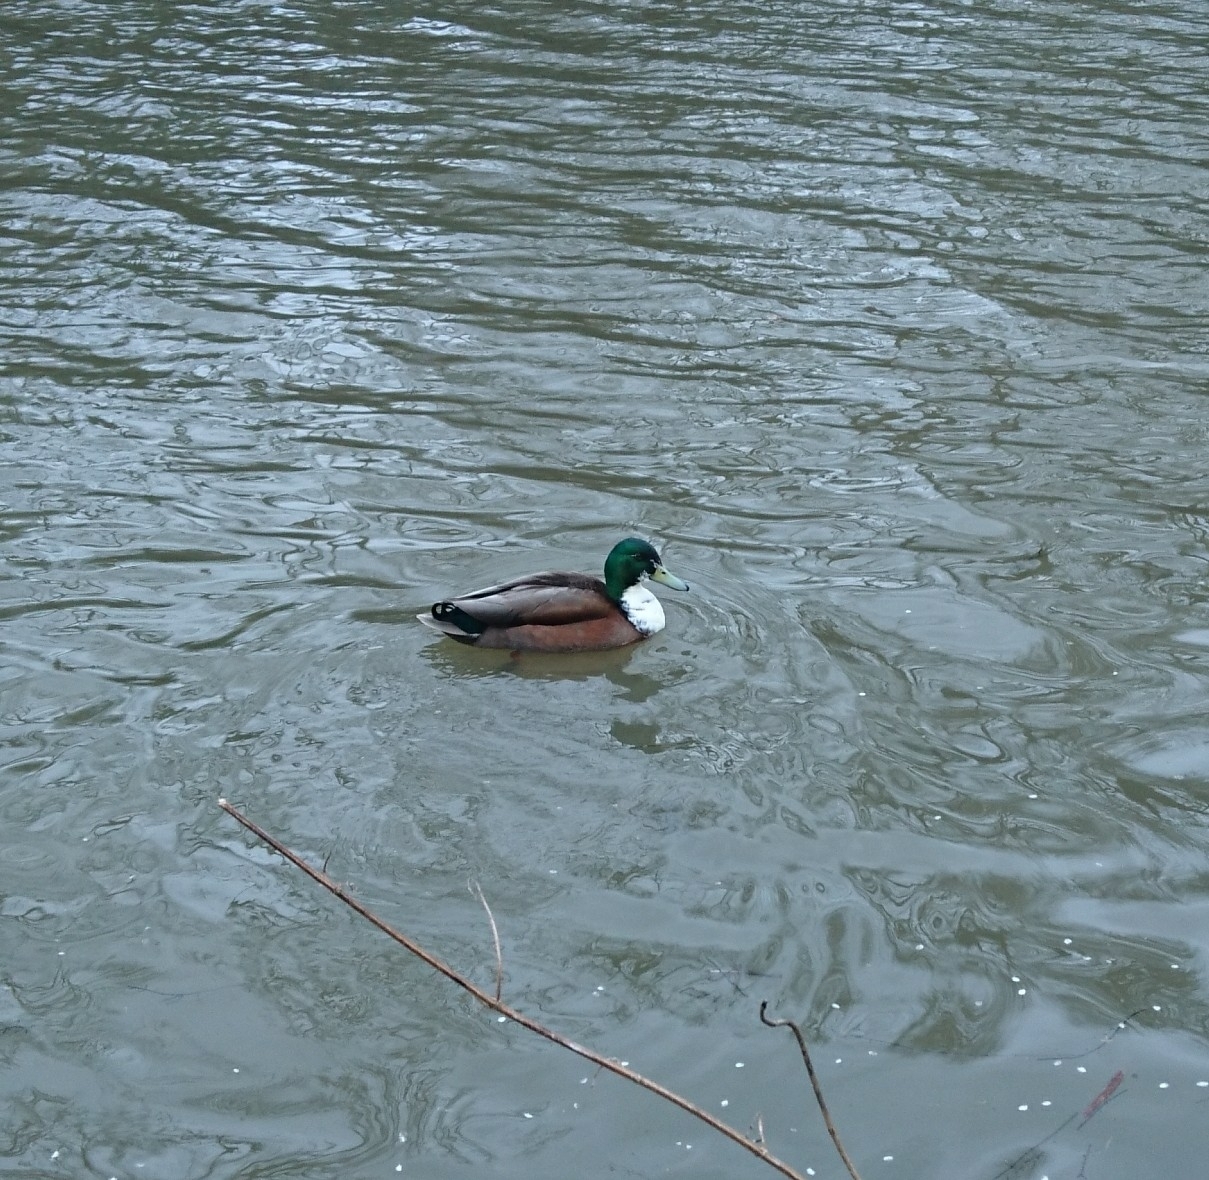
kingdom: Animalia
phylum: Chordata
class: Aves
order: Anseriformes
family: Anatidae
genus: Anas
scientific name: Anas platyrhynchos
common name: Mallard
